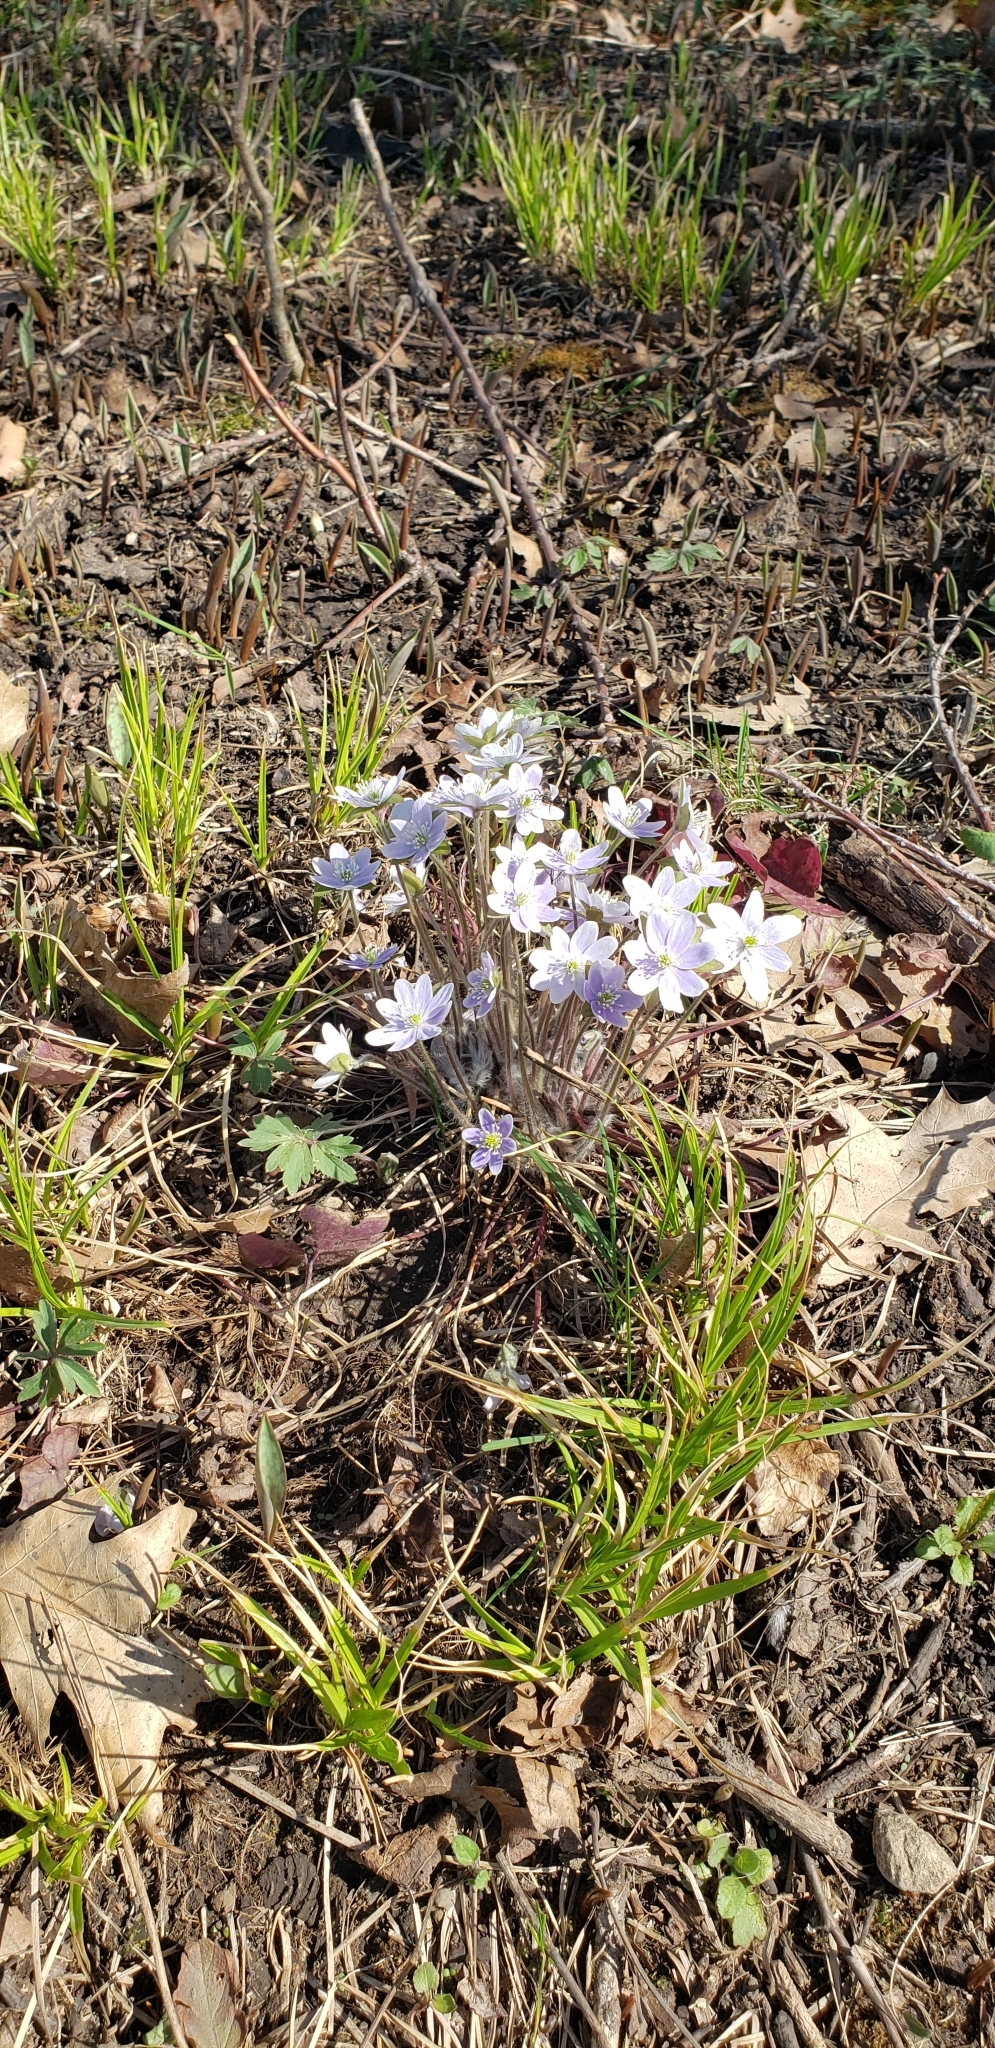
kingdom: Plantae
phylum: Tracheophyta
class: Magnoliopsida
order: Ranunculales
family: Ranunculaceae
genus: Hepatica
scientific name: Hepatica acutiloba
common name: Sharp-lobed hepatica
